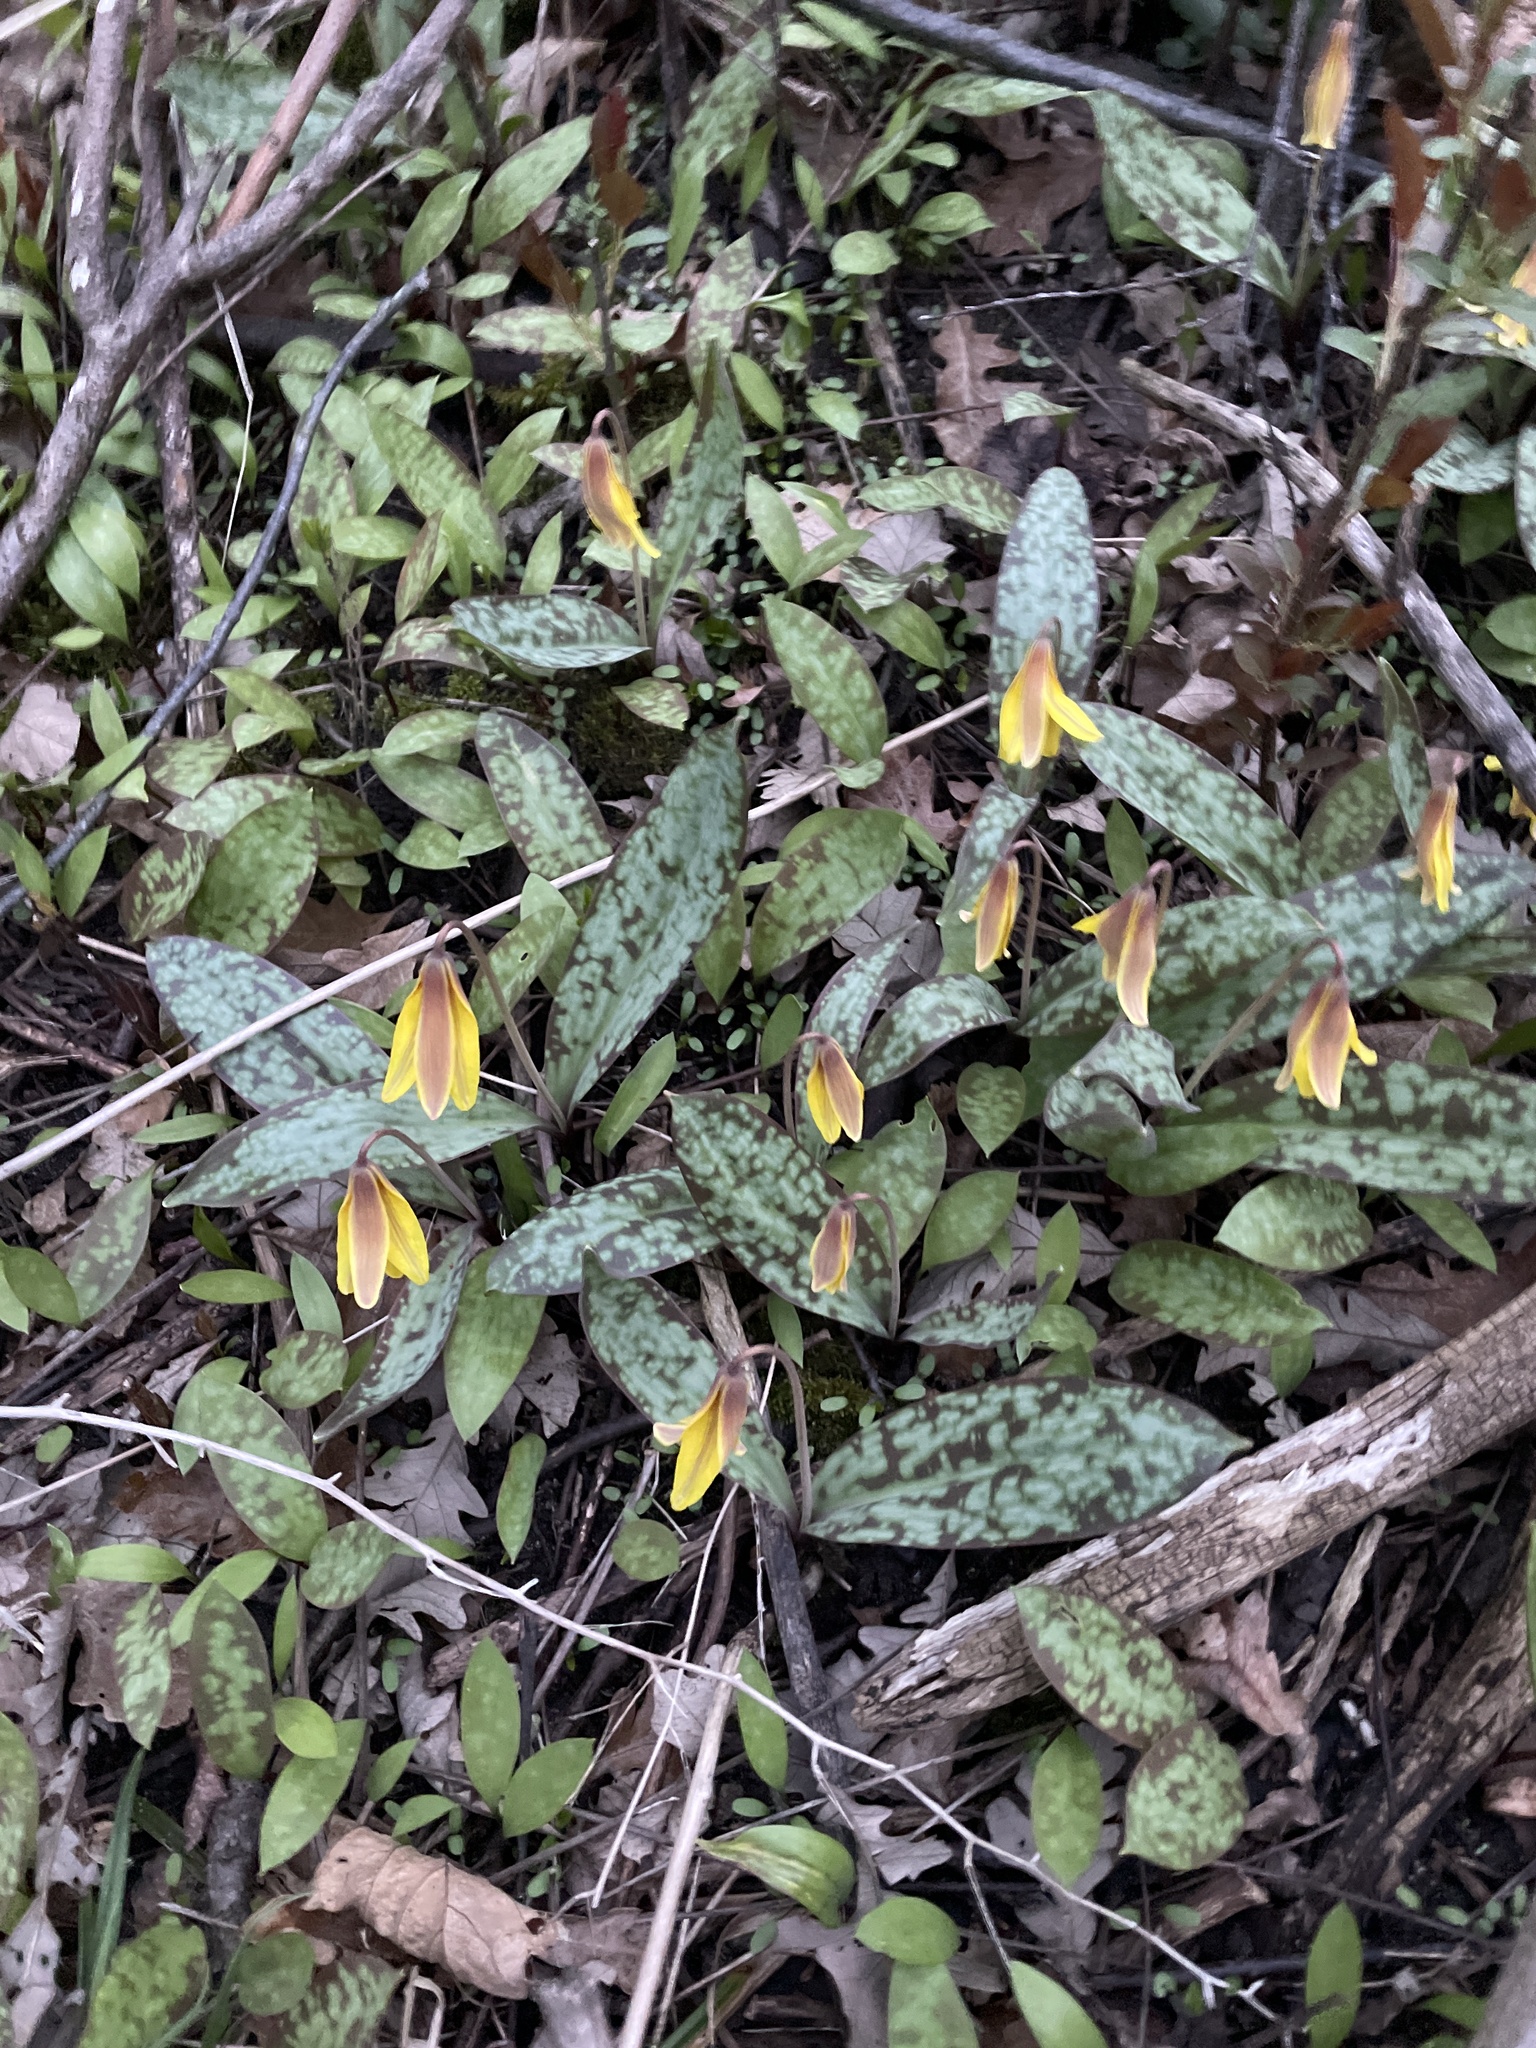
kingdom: Plantae
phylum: Tracheophyta
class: Liliopsida
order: Liliales
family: Liliaceae
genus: Erythronium
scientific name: Erythronium americanum
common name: Yellow adder's-tongue
